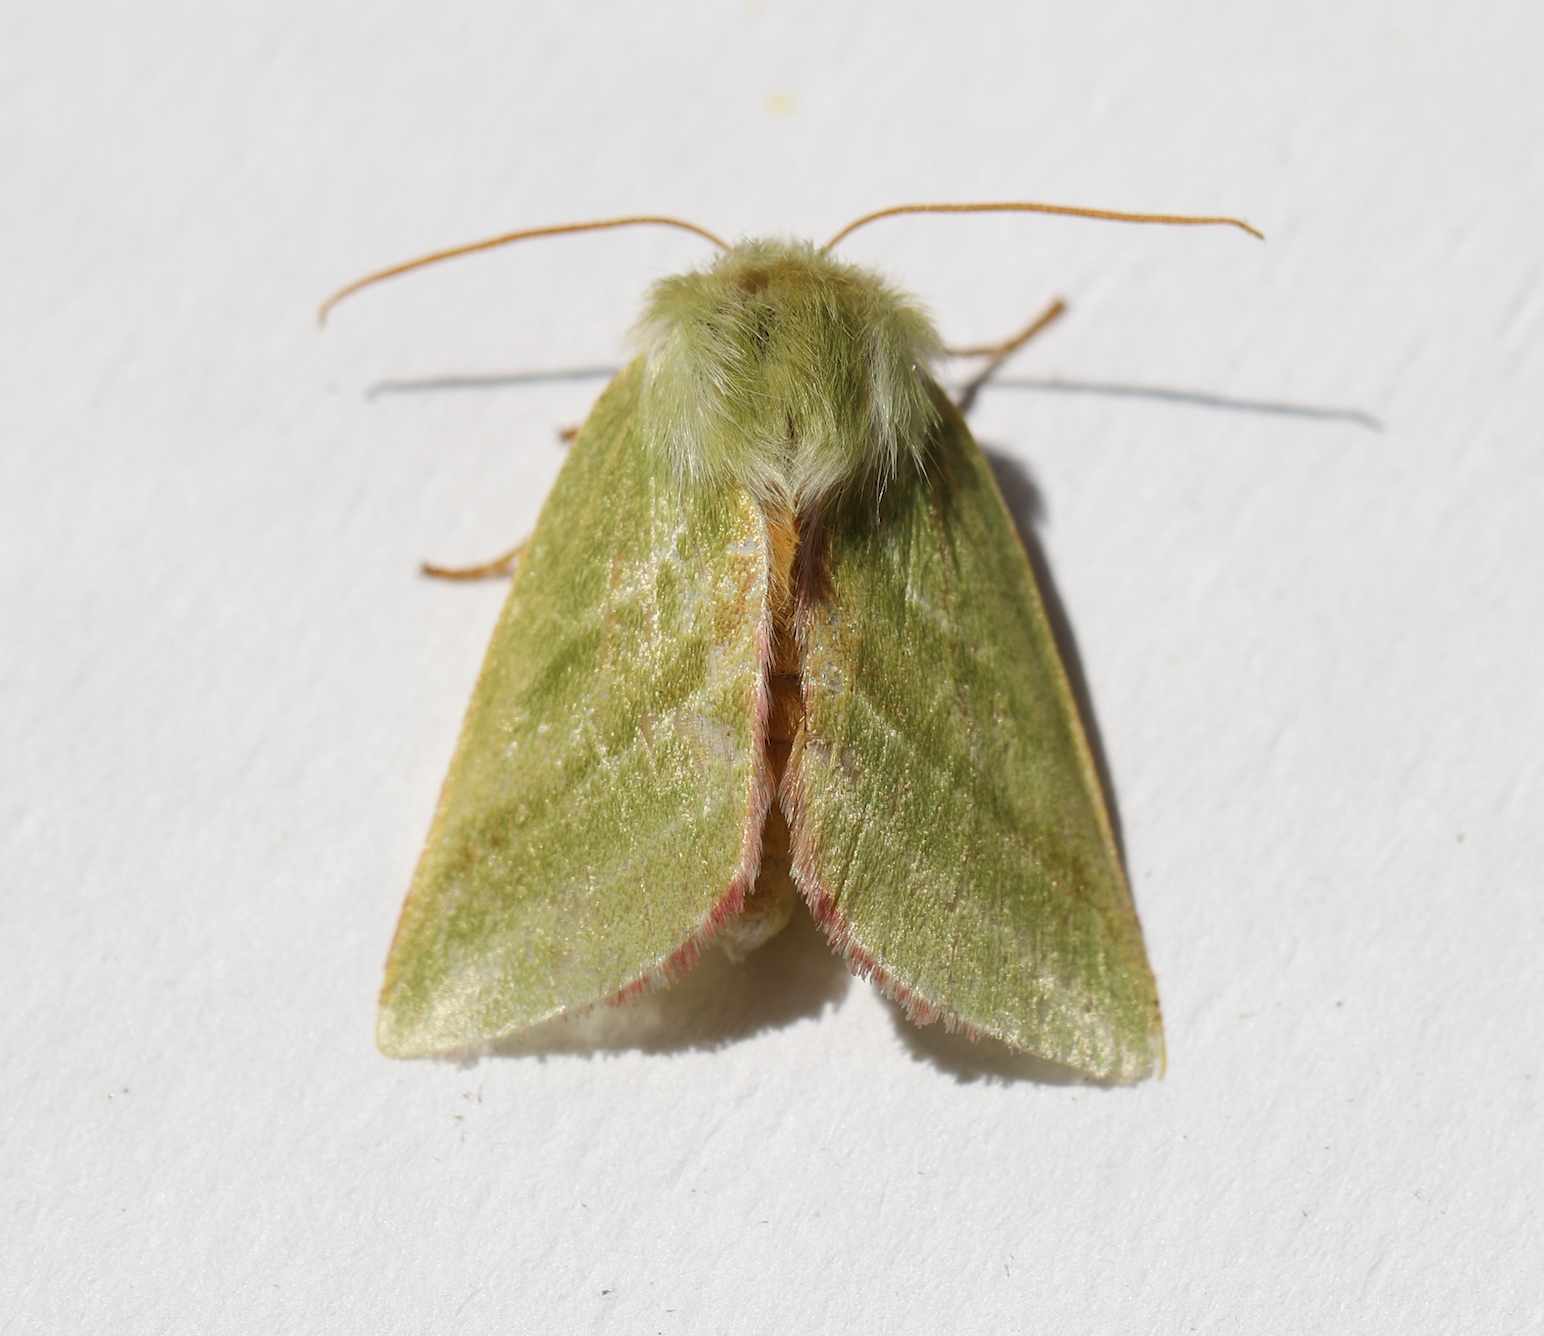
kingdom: Animalia
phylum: Arthropoda
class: Insecta
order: Lepidoptera
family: Nolidae
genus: Pseudoips
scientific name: Pseudoips prasinana
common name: Green silver-lines
